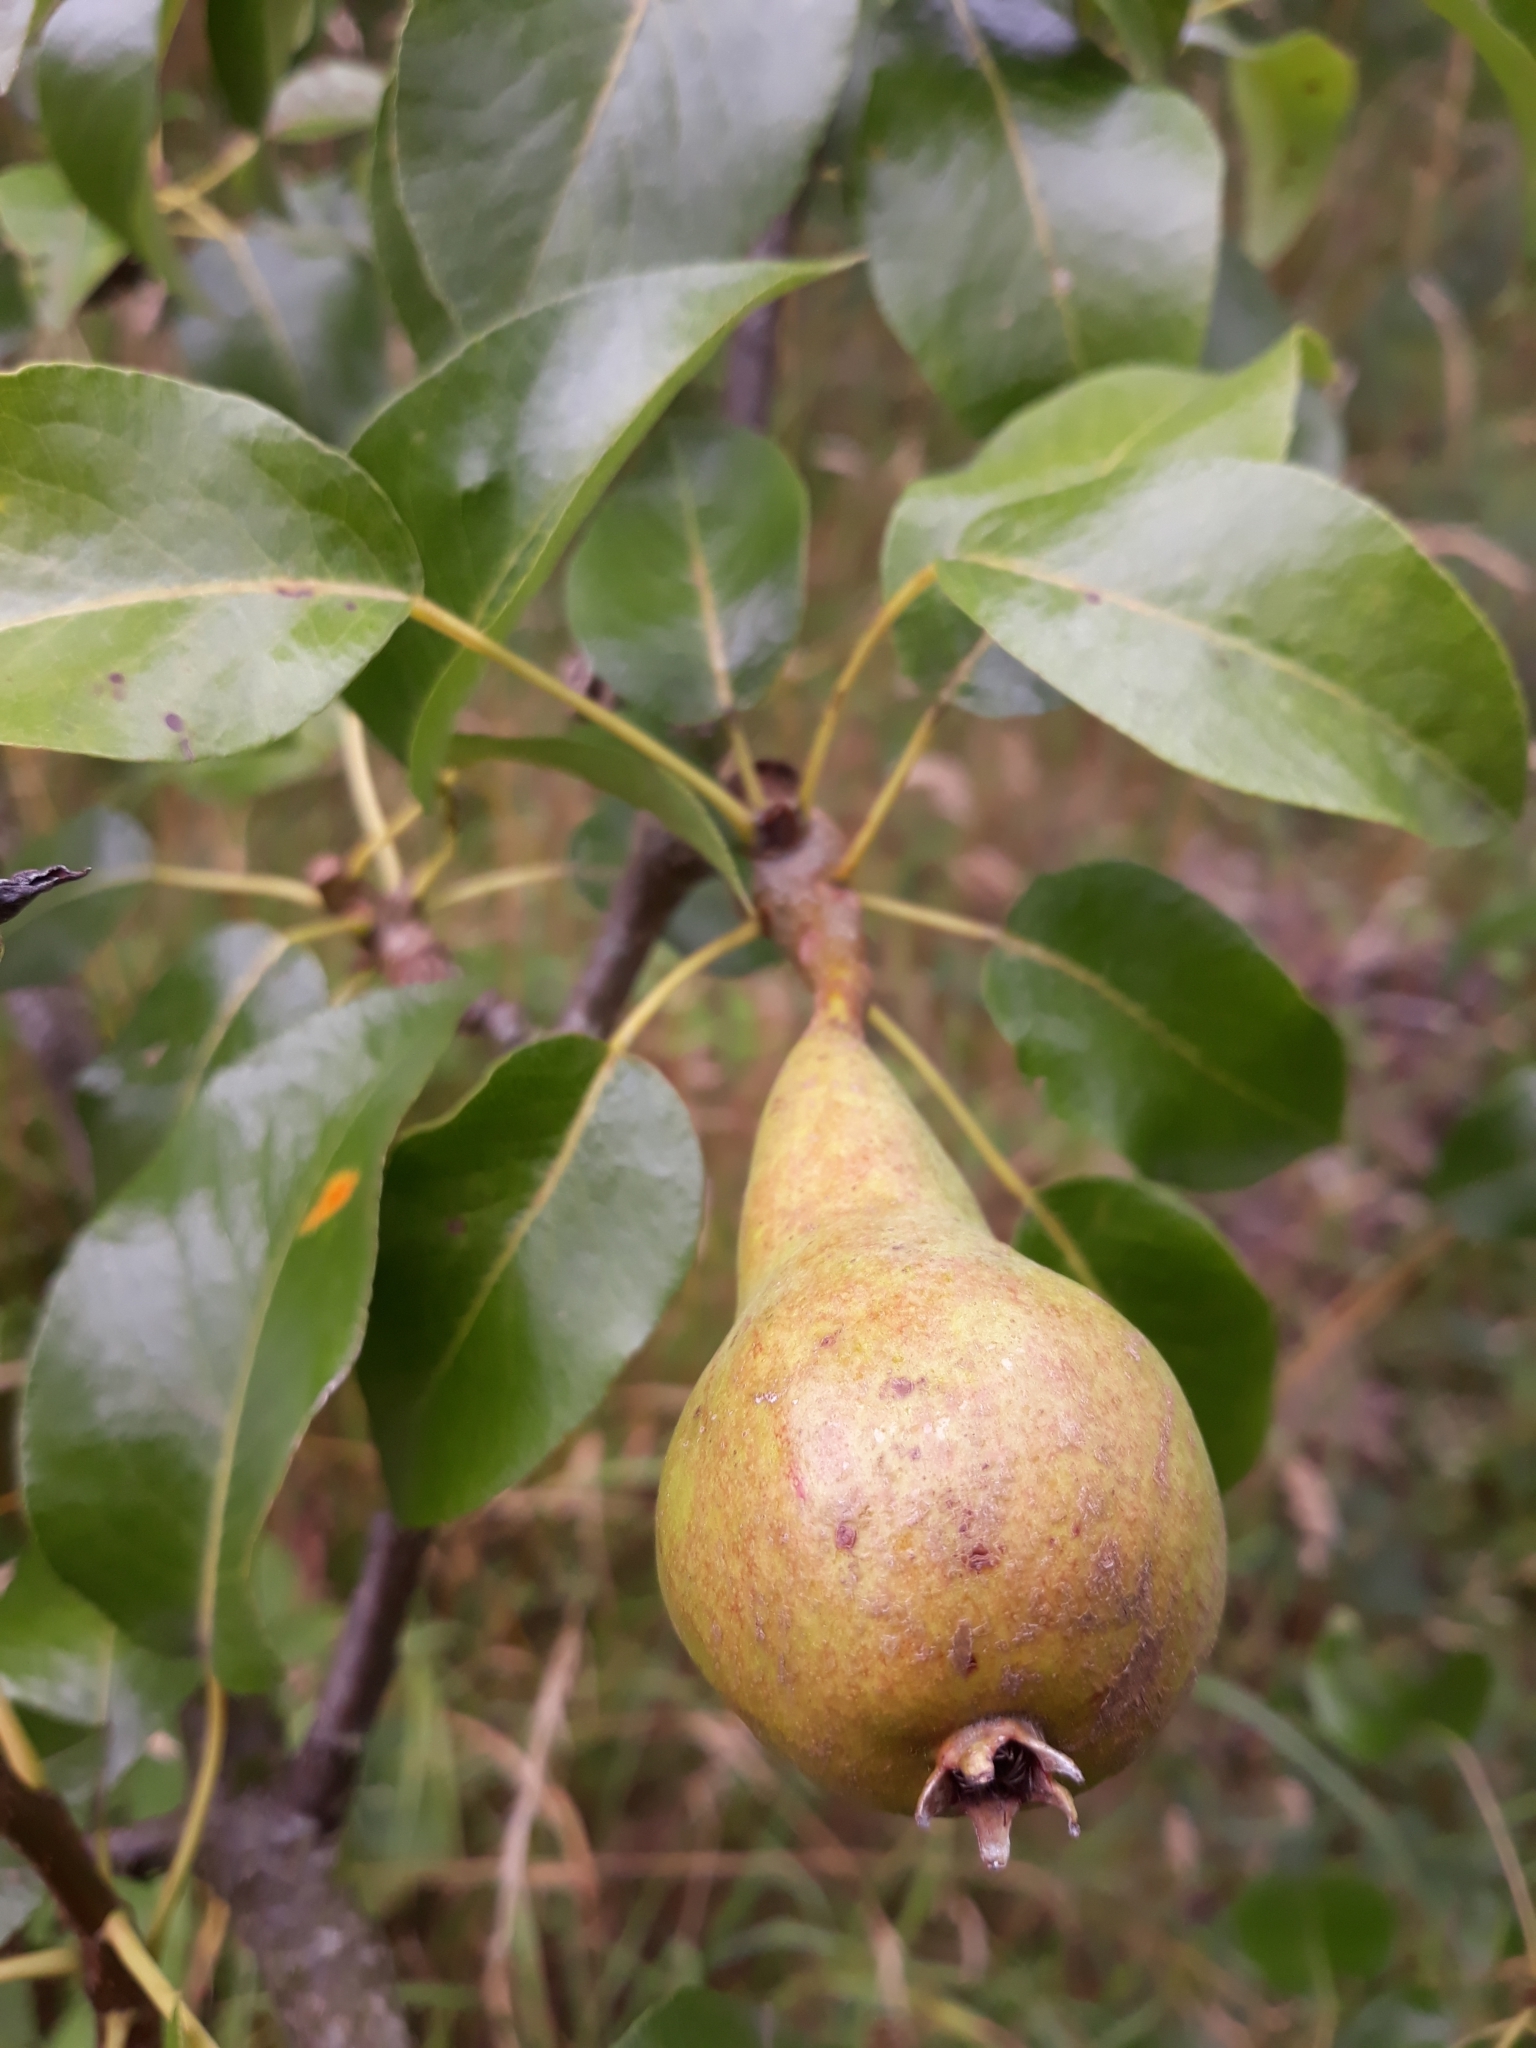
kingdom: Plantae
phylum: Tracheophyta
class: Magnoliopsida
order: Rosales
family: Rosaceae
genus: Pyrus
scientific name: Pyrus communis
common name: Pear
